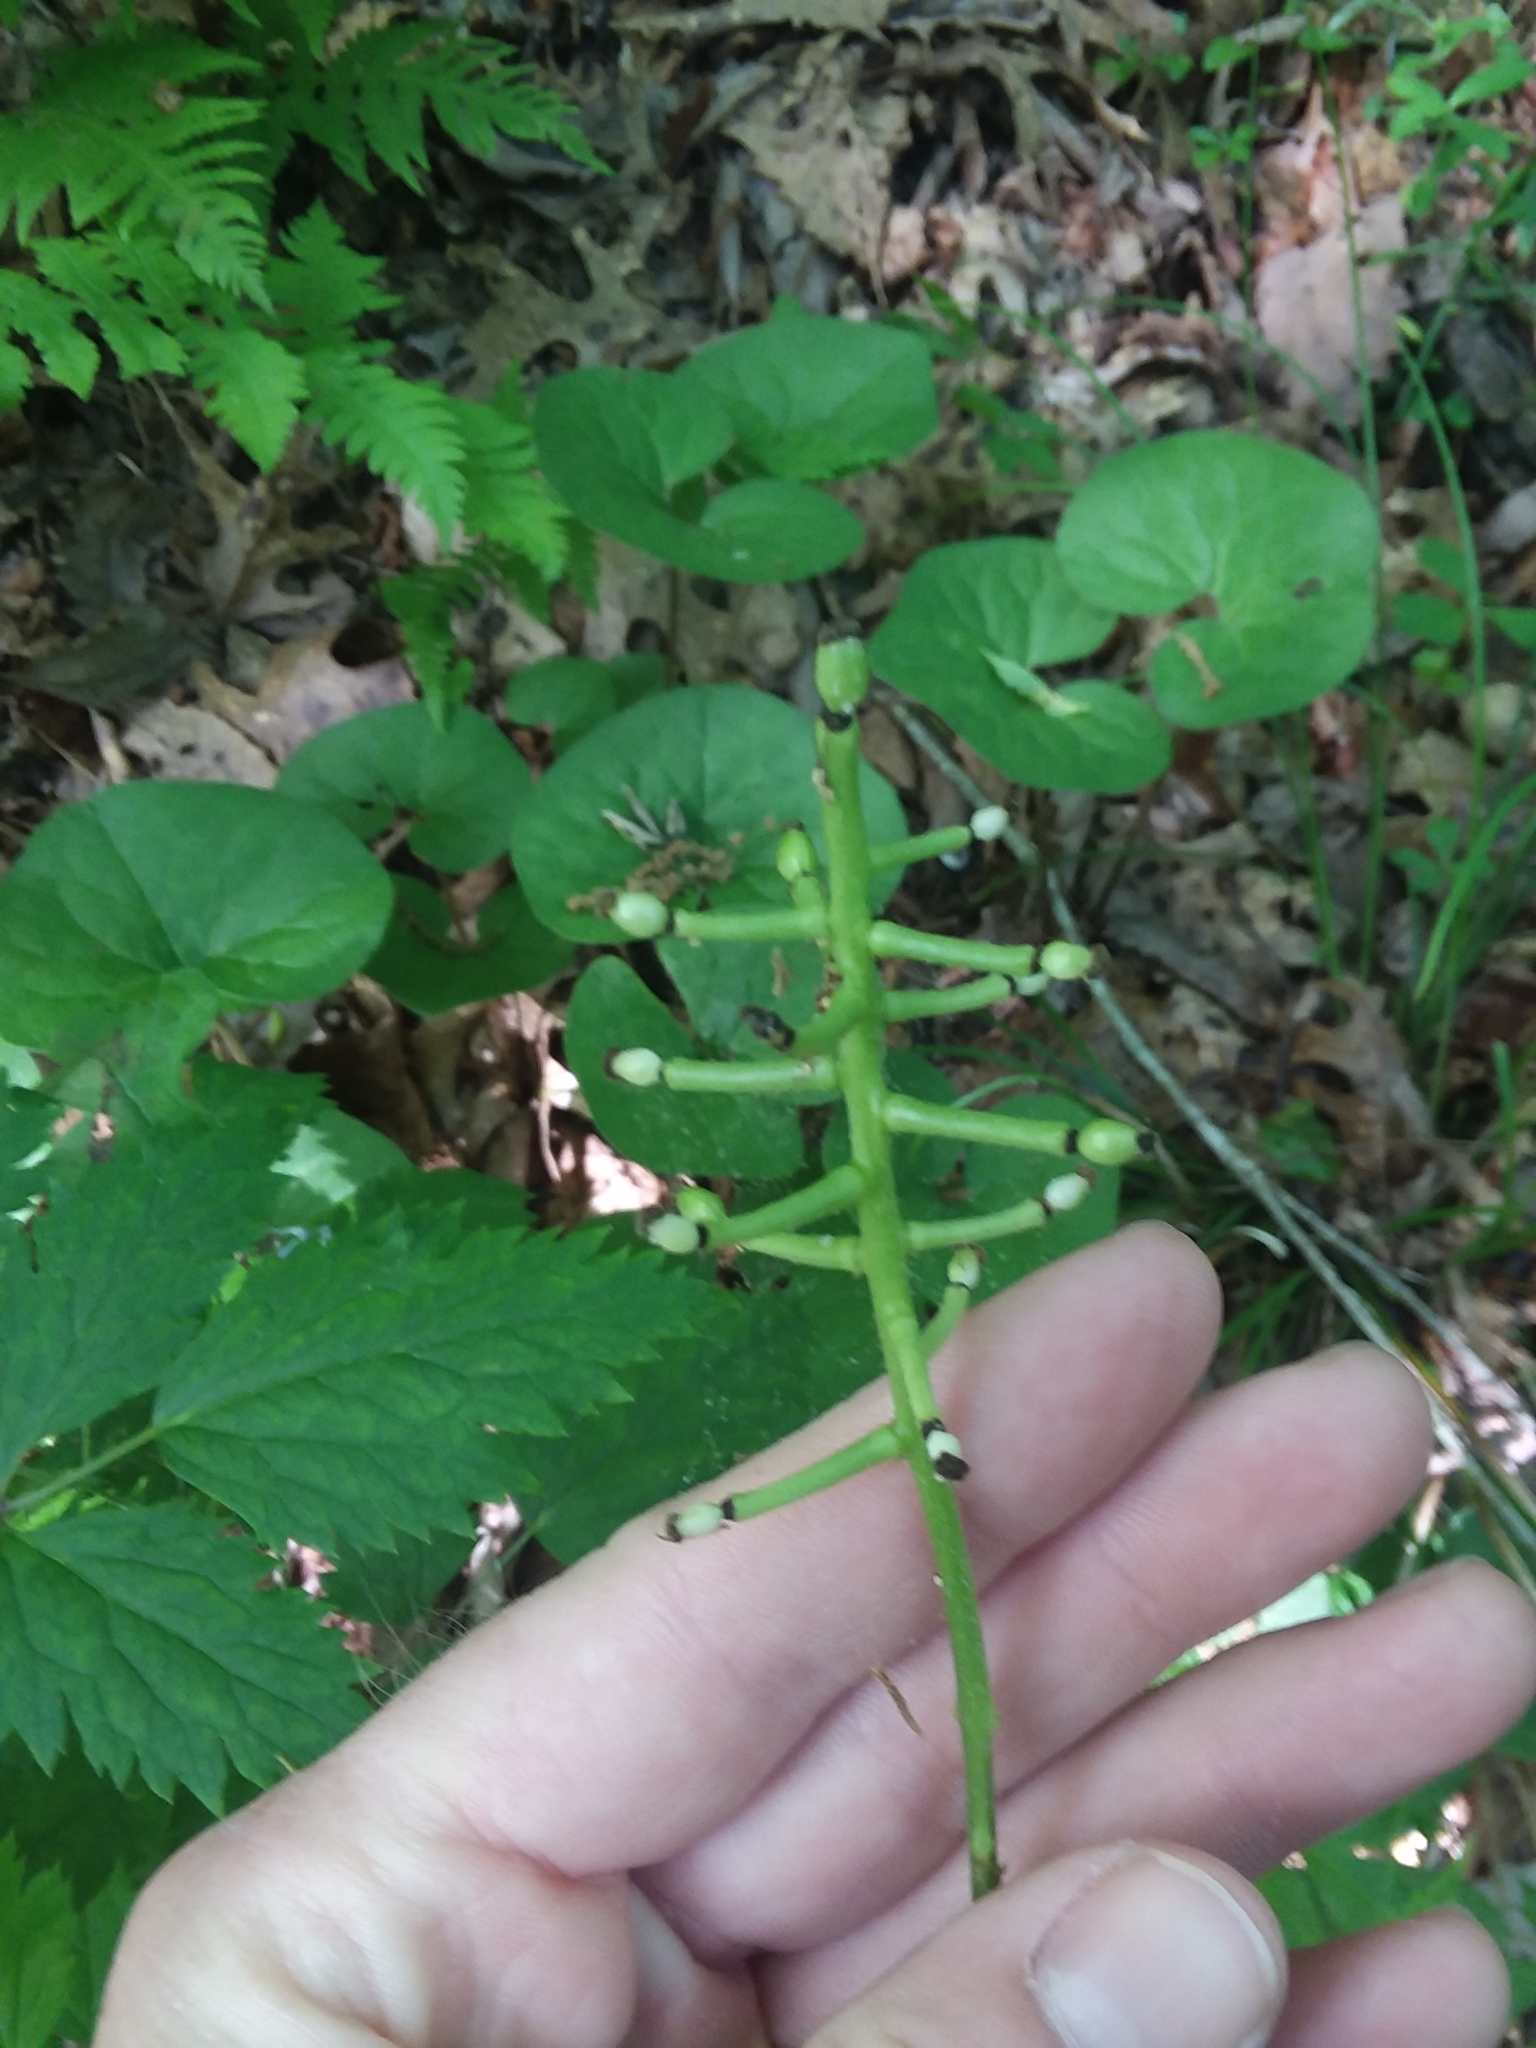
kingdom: Plantae
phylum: Tracheophyta
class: Magnoliopsida
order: Ranunculales
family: Ranunculaceae
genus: Actaea
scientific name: Actaea pachypoda
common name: Doll's-eyes
